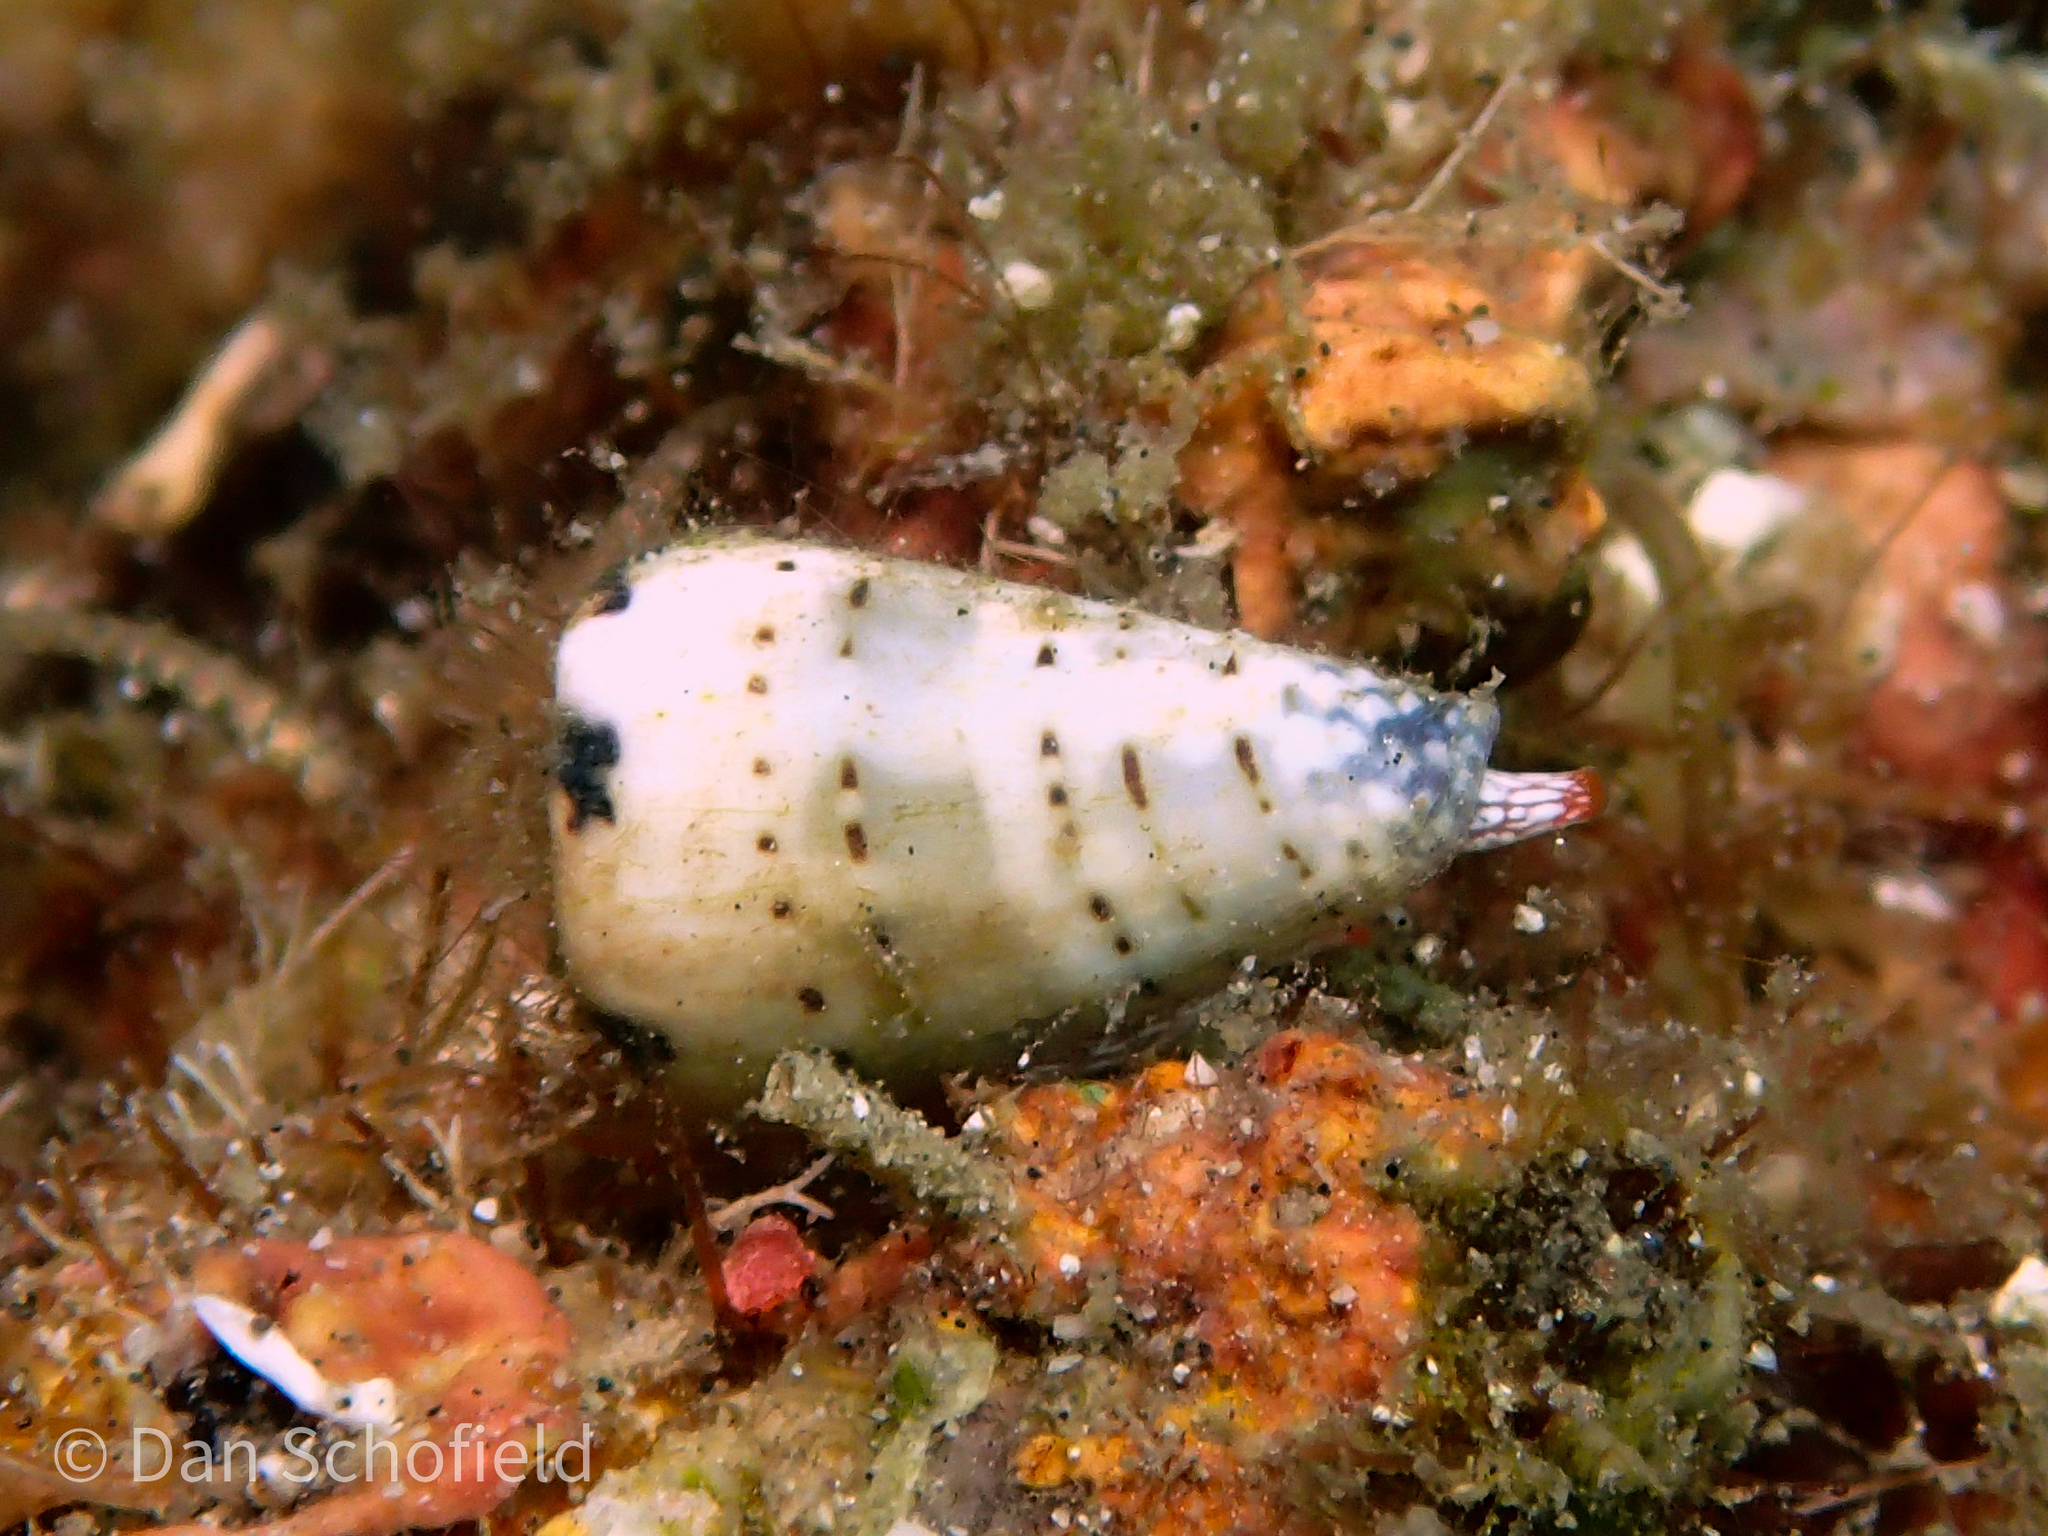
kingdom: Animalia
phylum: Mollusca
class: Gastropoda
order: Neogastropoda
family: Conidae
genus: Conus
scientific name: Conus musicus
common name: Music cone
